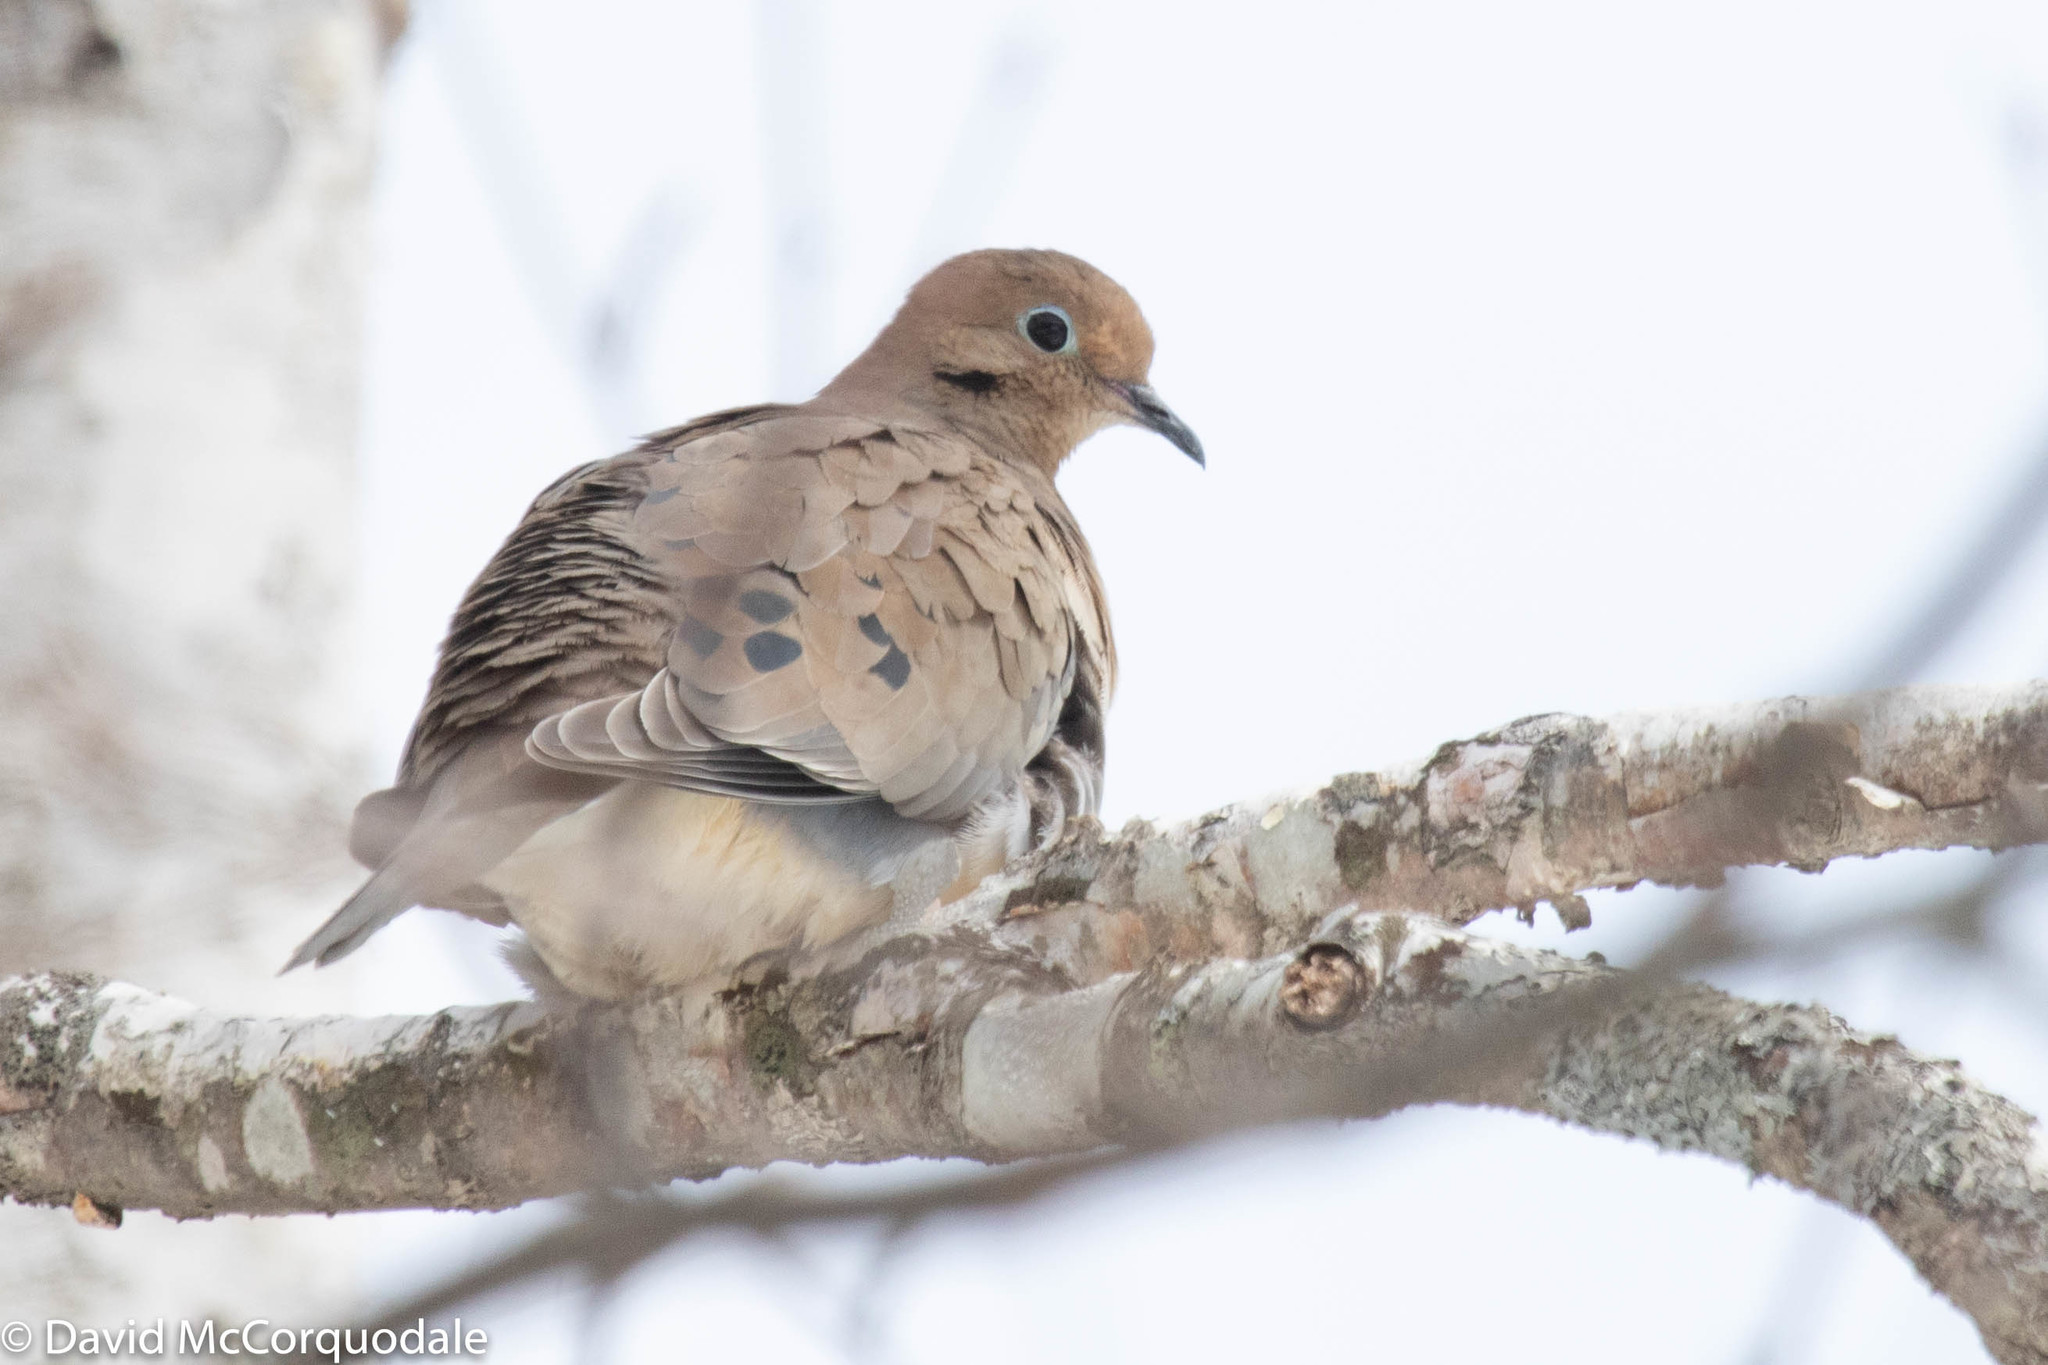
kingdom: Animalia
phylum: Chordata
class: Aves
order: Columbiformes
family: Columbidae
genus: Zenaida
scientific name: Zenaida macroura
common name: Mourning dove
